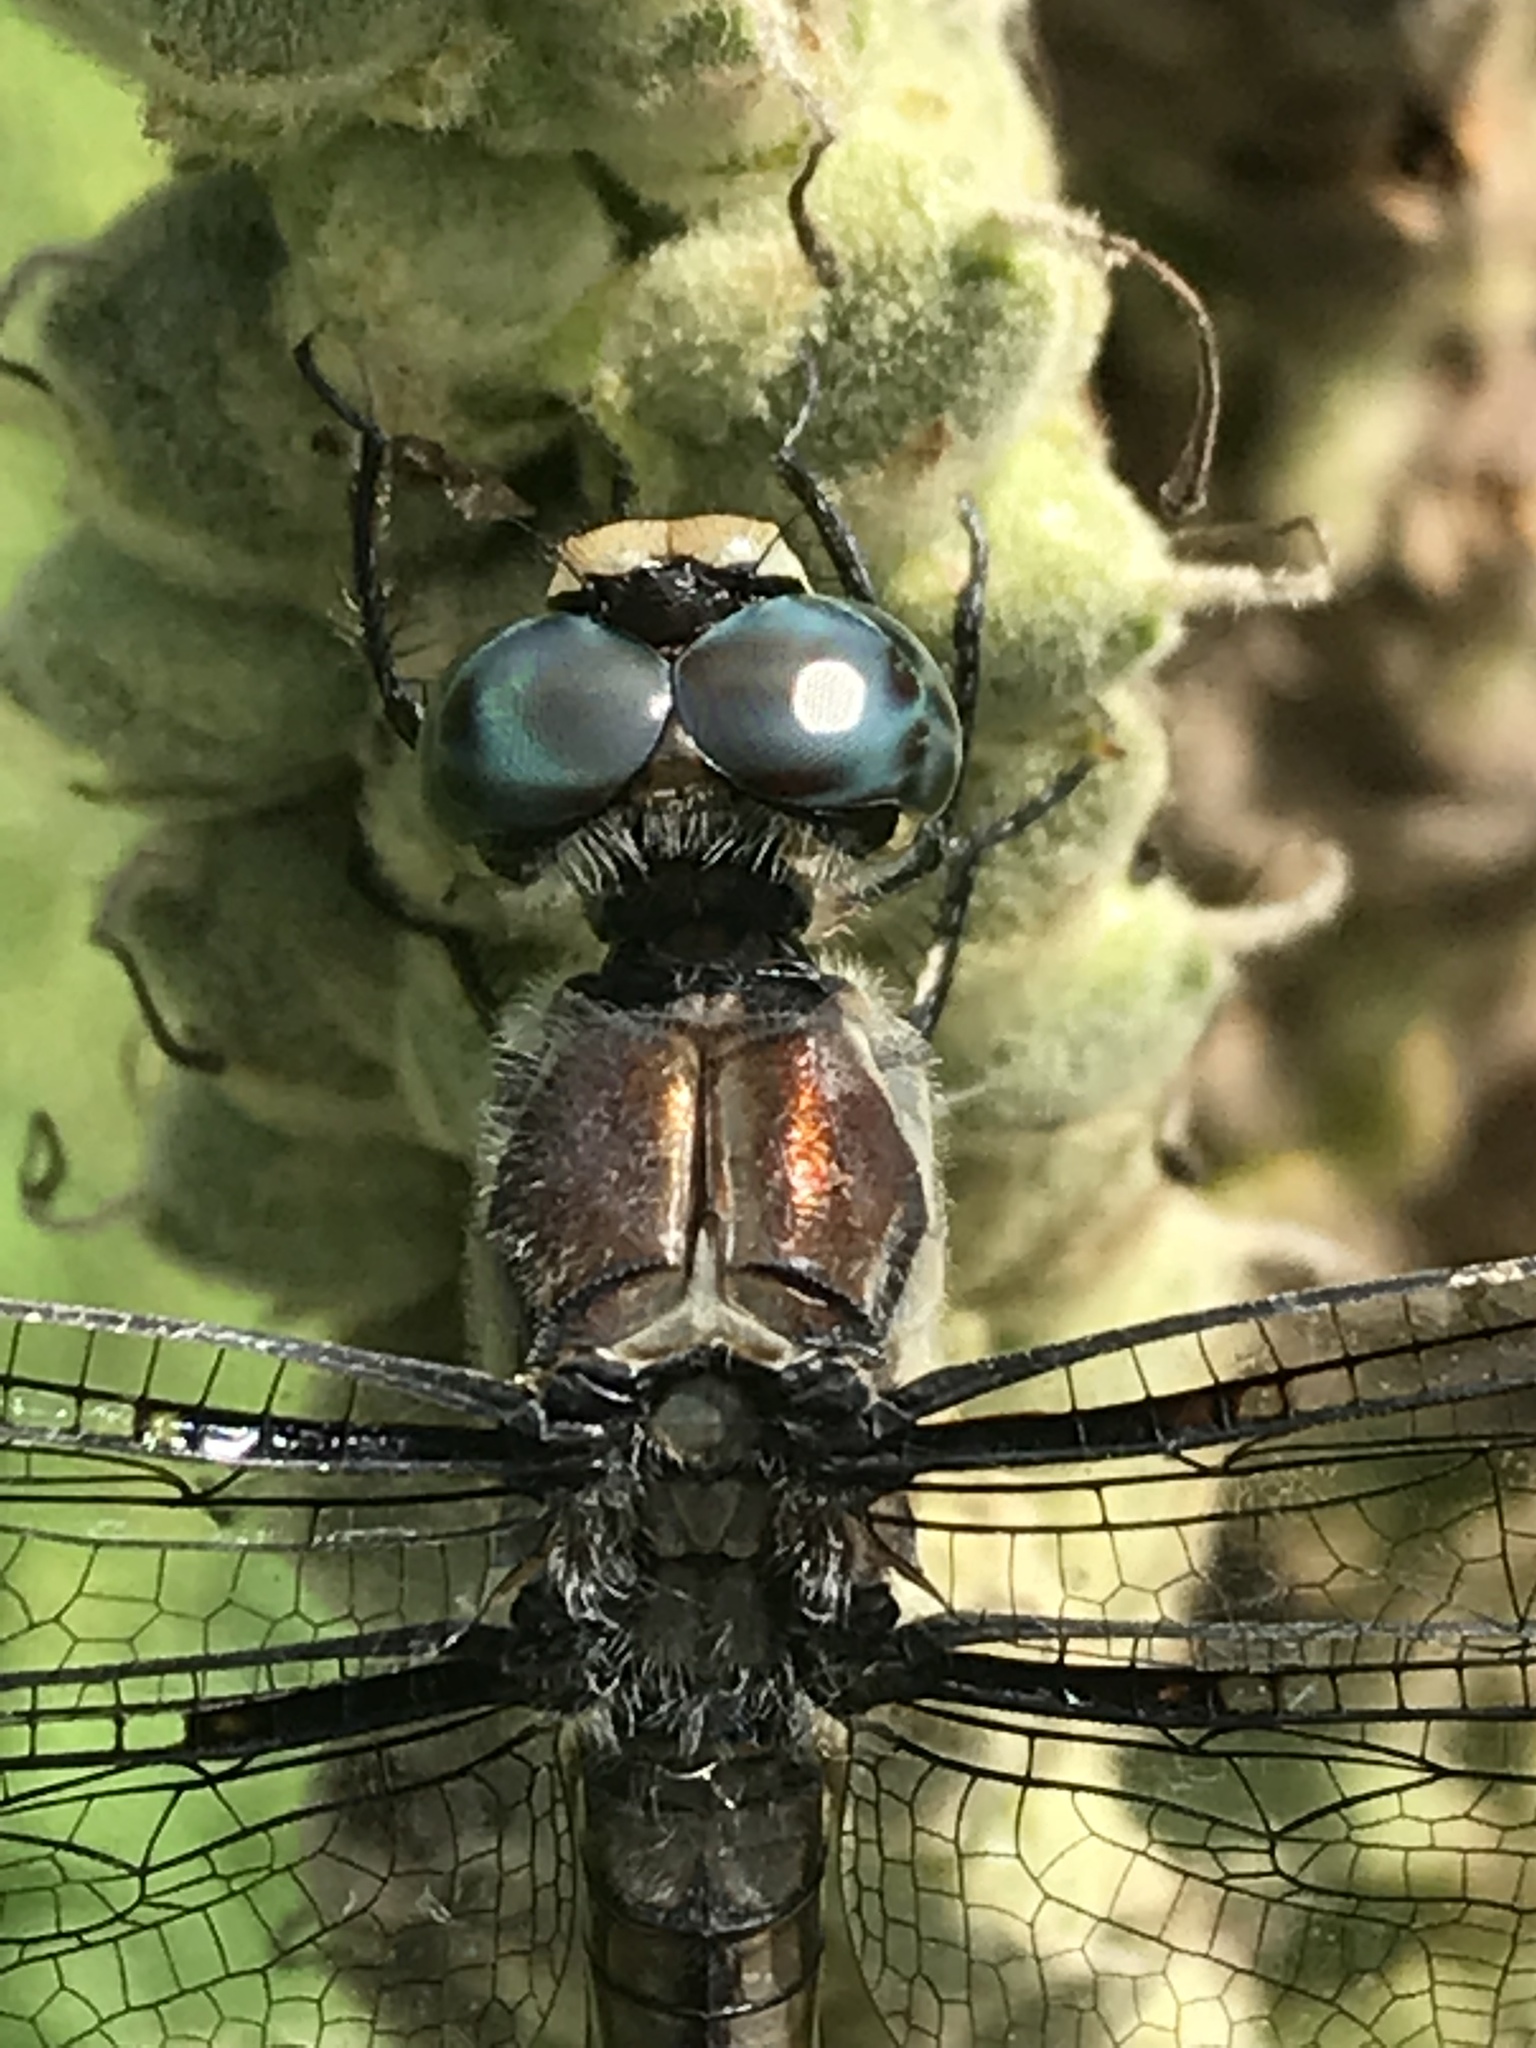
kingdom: Animalia
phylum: Arthropoda
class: Insecta
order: Odonata
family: Libellulidae
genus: Libellula
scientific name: Libellula vibrans
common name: Great blue skimmer
